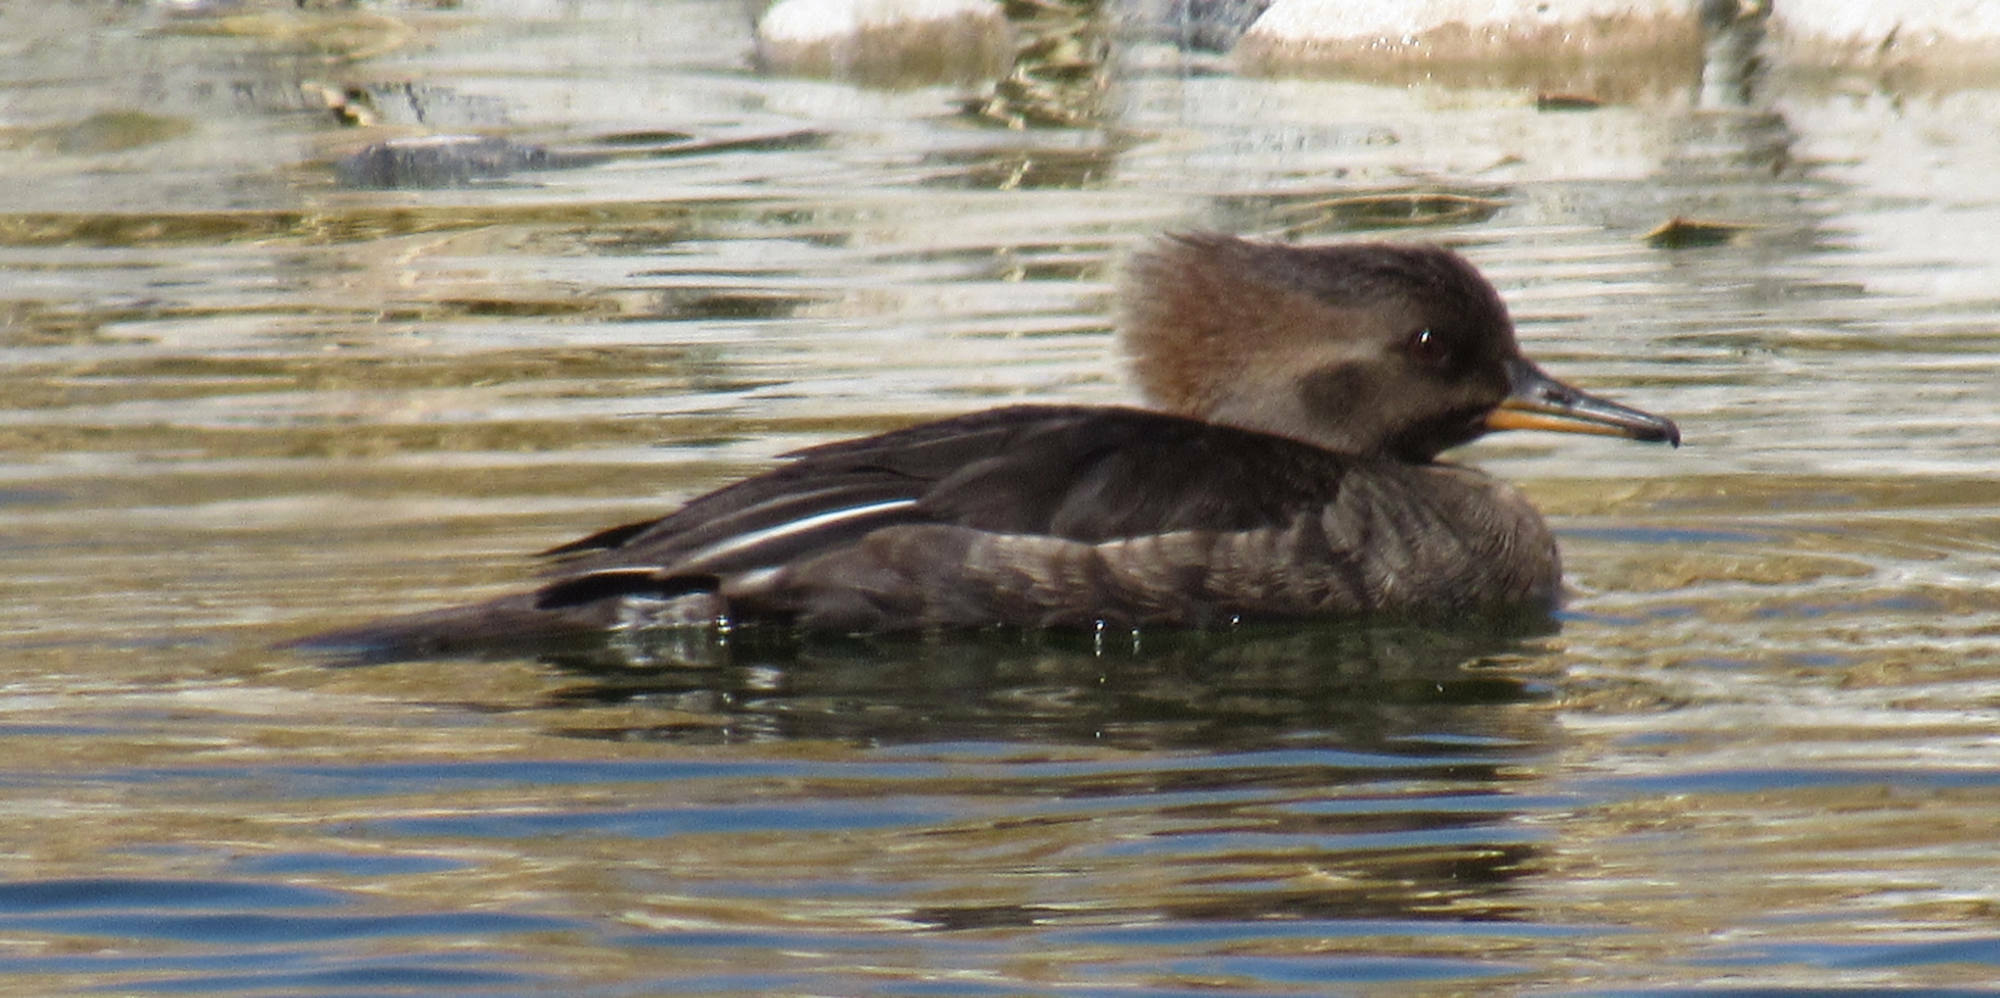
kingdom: Animalia
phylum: Chordata
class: Aves
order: Anseriformes
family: Anatidae
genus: Lophodytes
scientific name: Lophodytes cucullatus
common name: Hooded merganser
